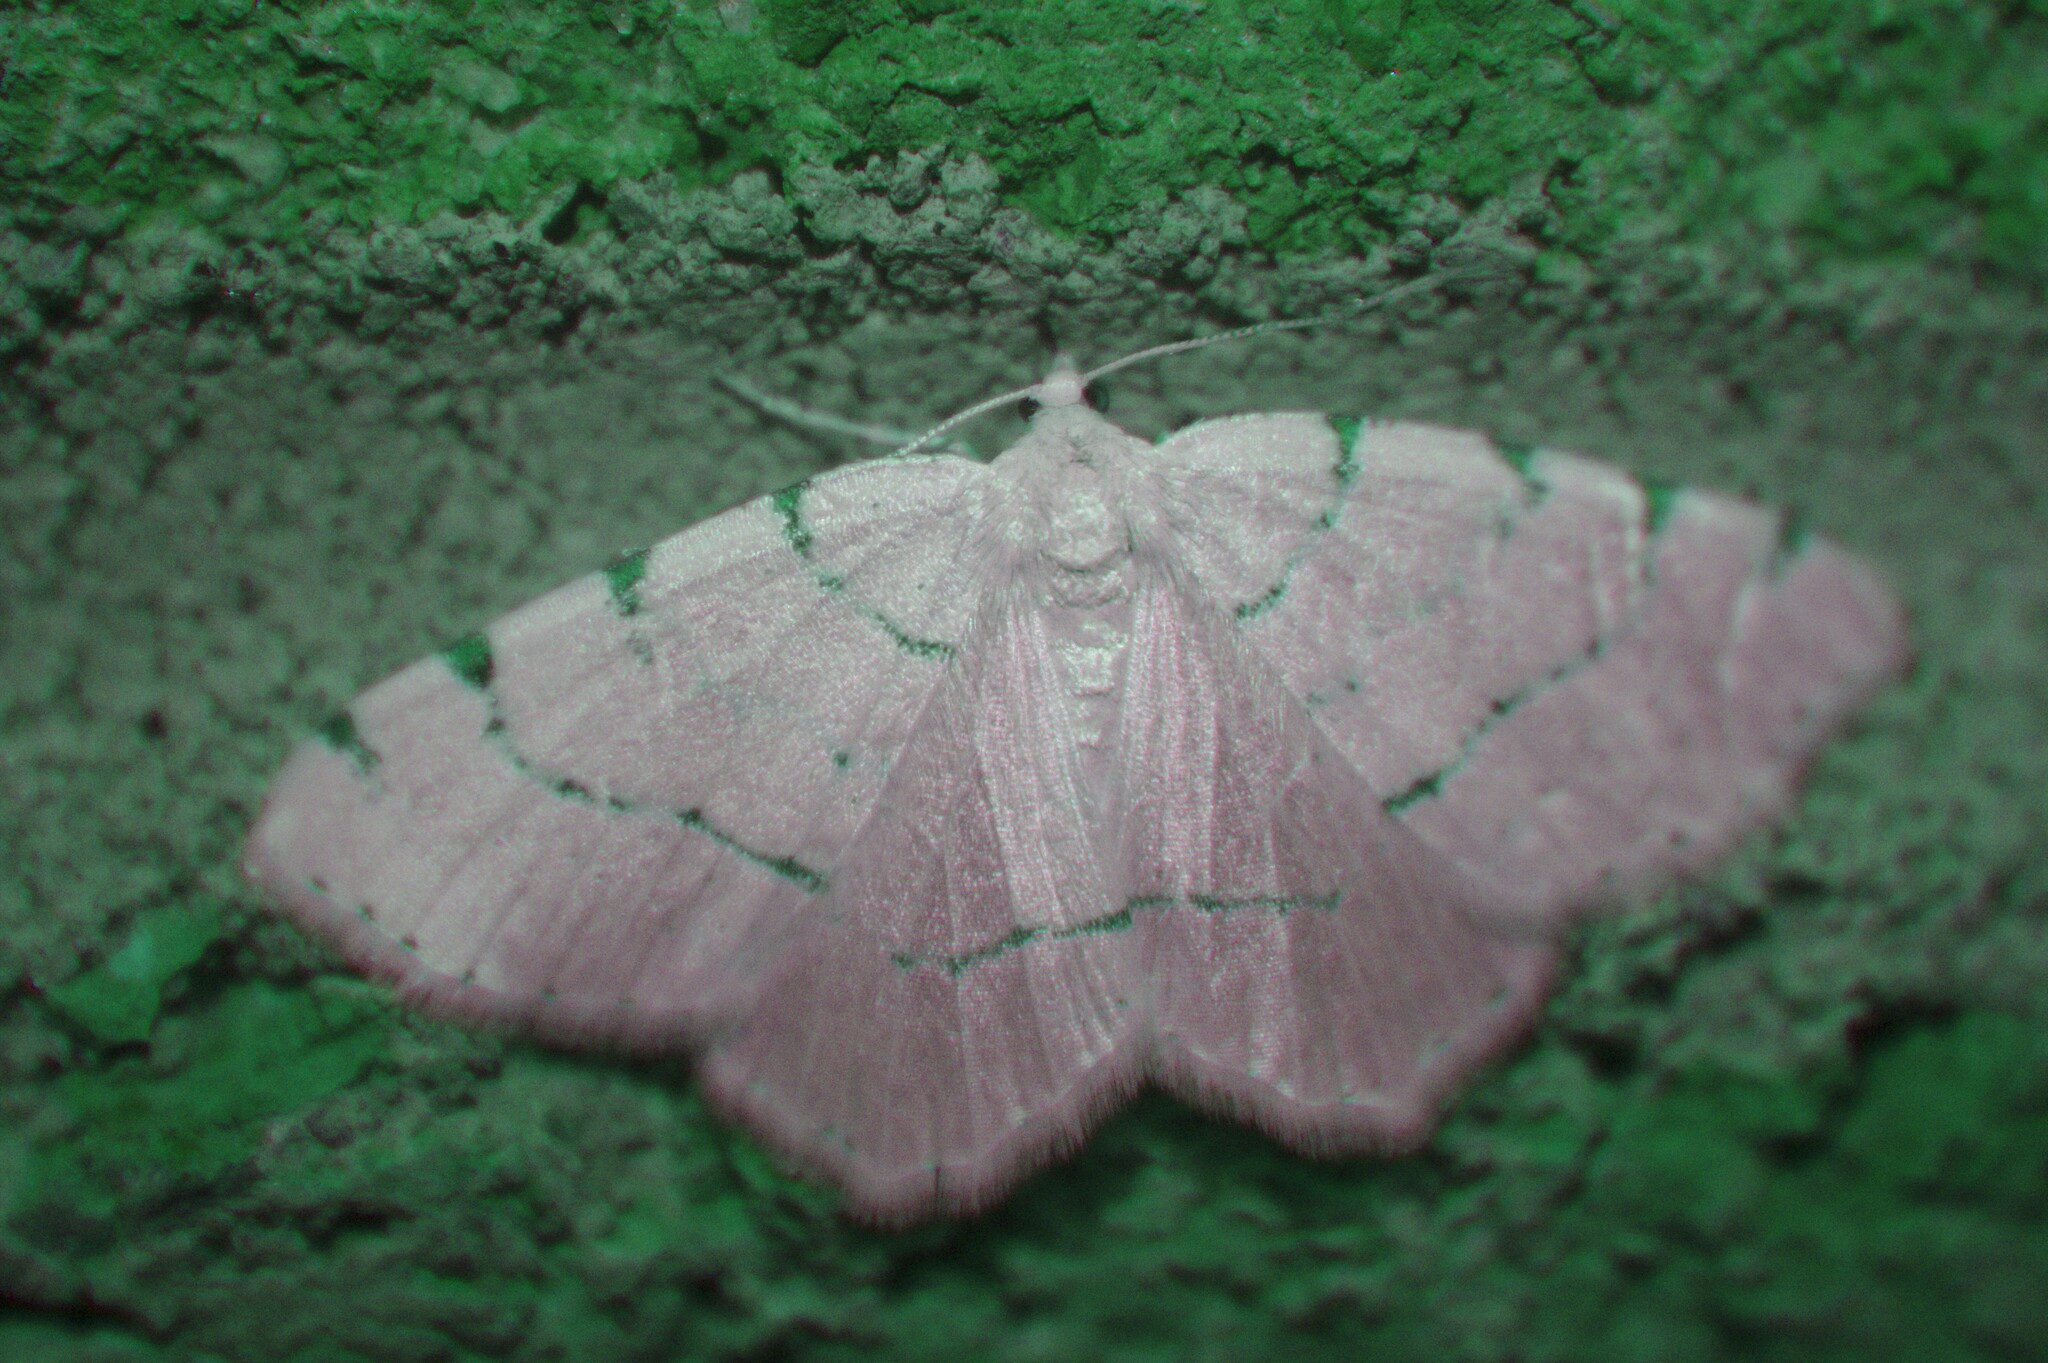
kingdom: Animalia
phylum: Arthropoda
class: Insecta
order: Lepidoptera
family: Geometridae
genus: Macaria
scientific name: Macaria pustularia
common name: Lesser maple spanworm moth
